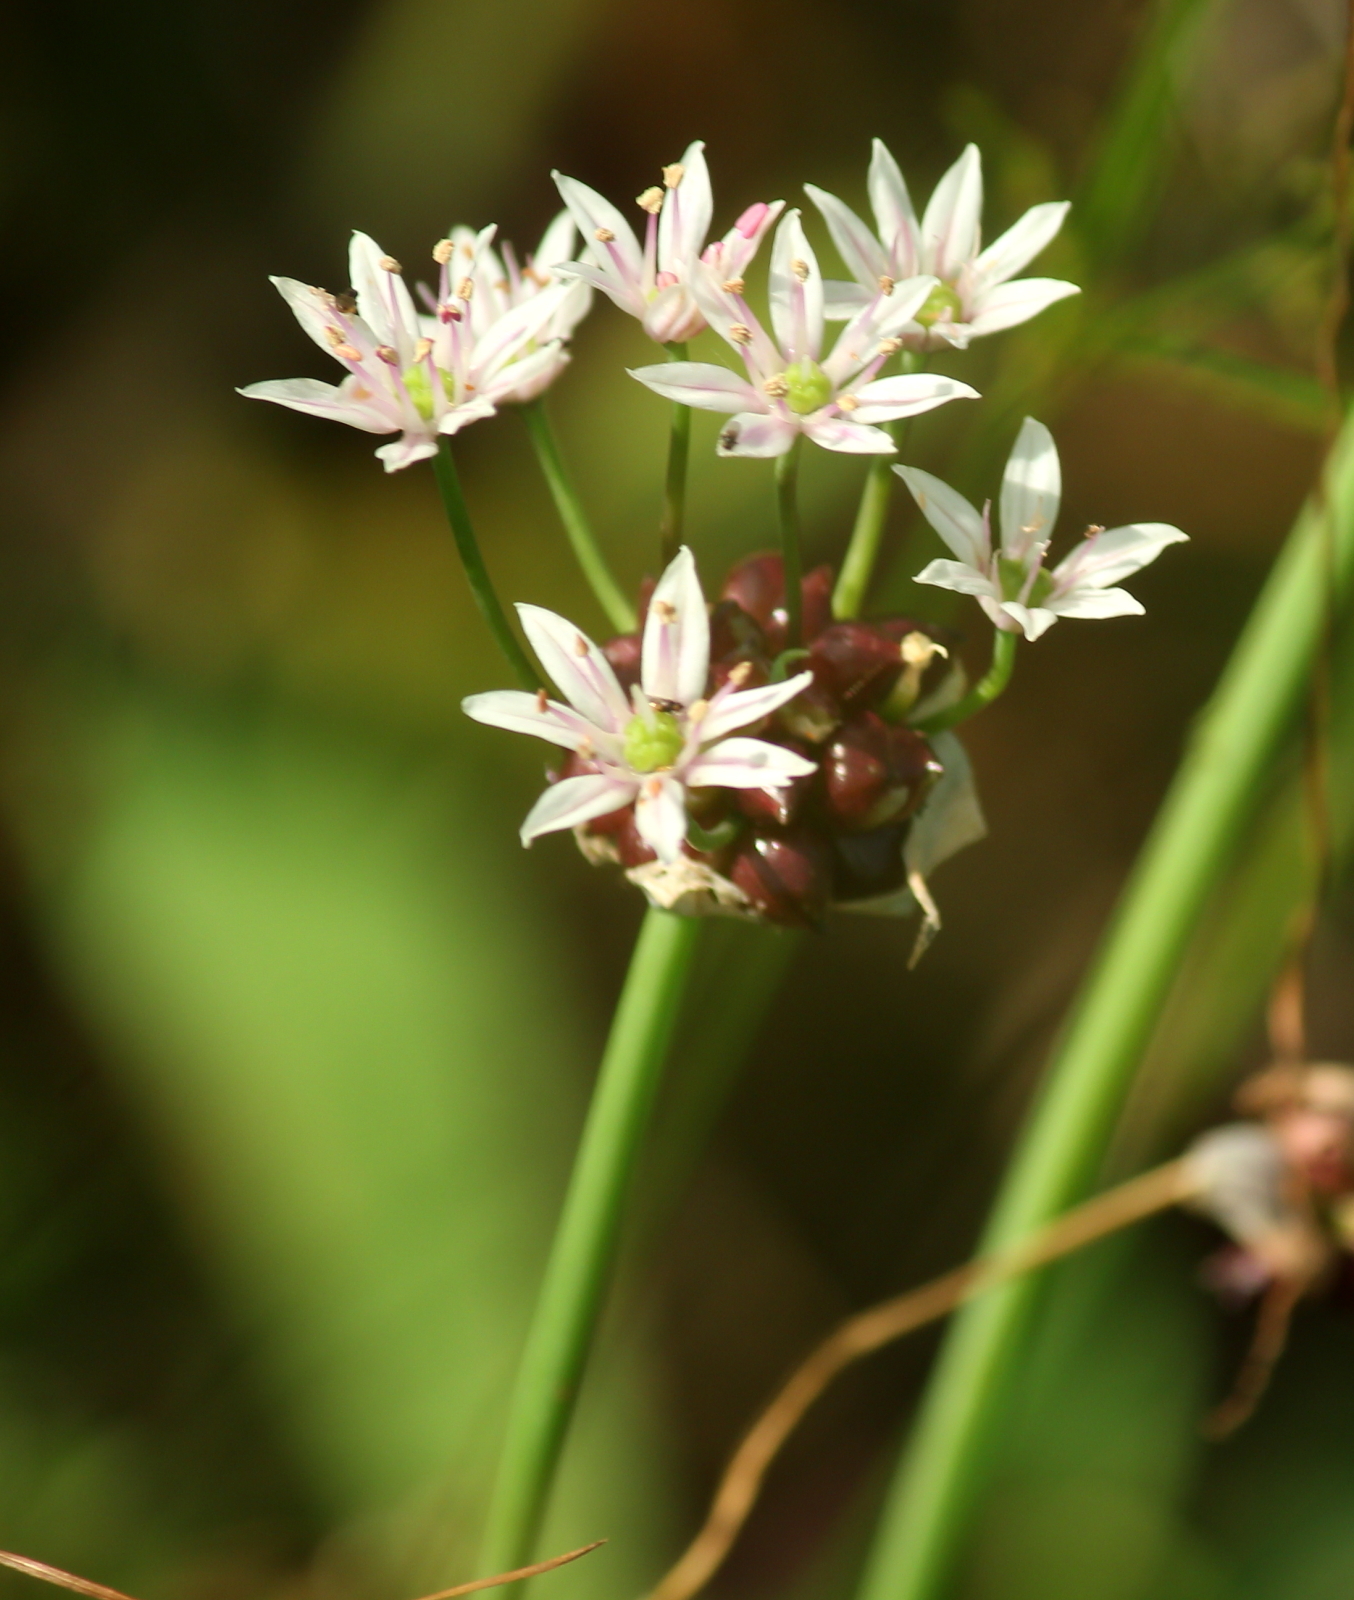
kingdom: Plantae
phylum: Tracheophyta
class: Liliopsida
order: Asparagales
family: Amaryllidaceae
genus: Allium
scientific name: Allium canadense
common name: Meadow garlic
